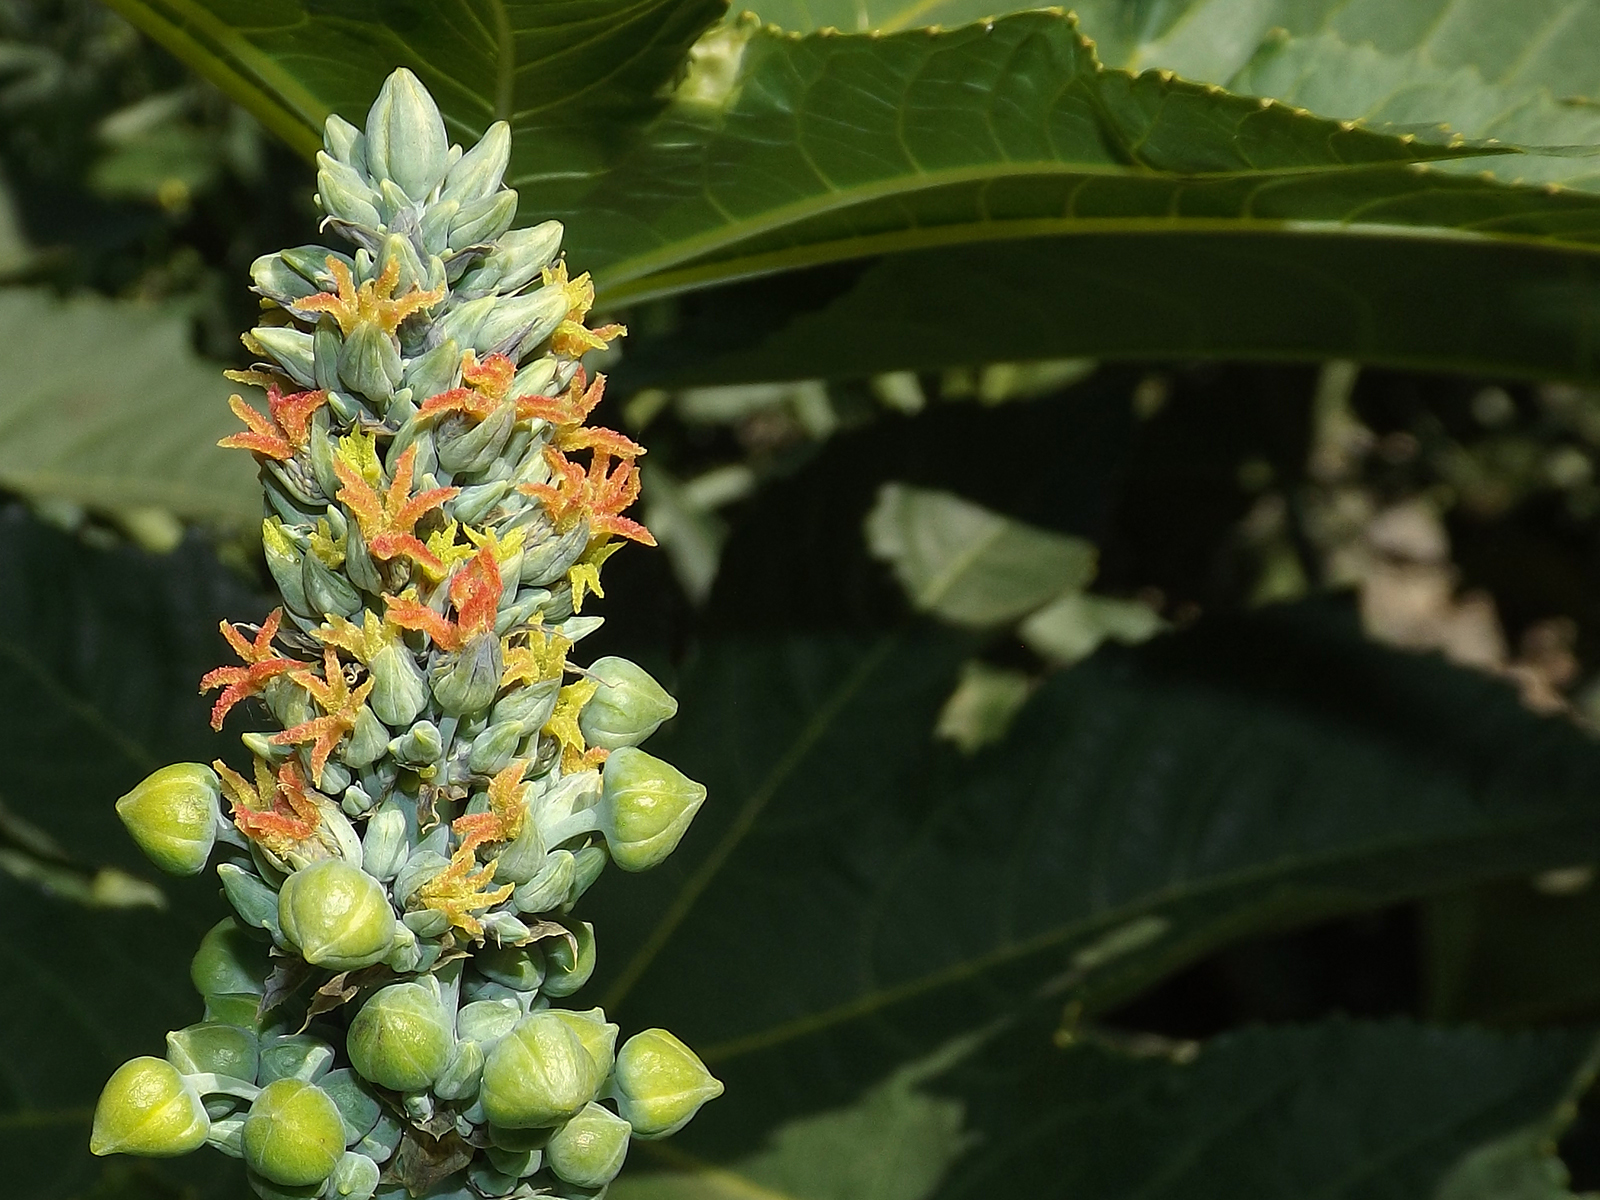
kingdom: Plantae
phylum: Tracheophyta
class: Magnoliopsida
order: Malpighiales
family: Euphorbiaceae
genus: Ricinus
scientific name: Ricinus communis
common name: Castor-oil-plant
